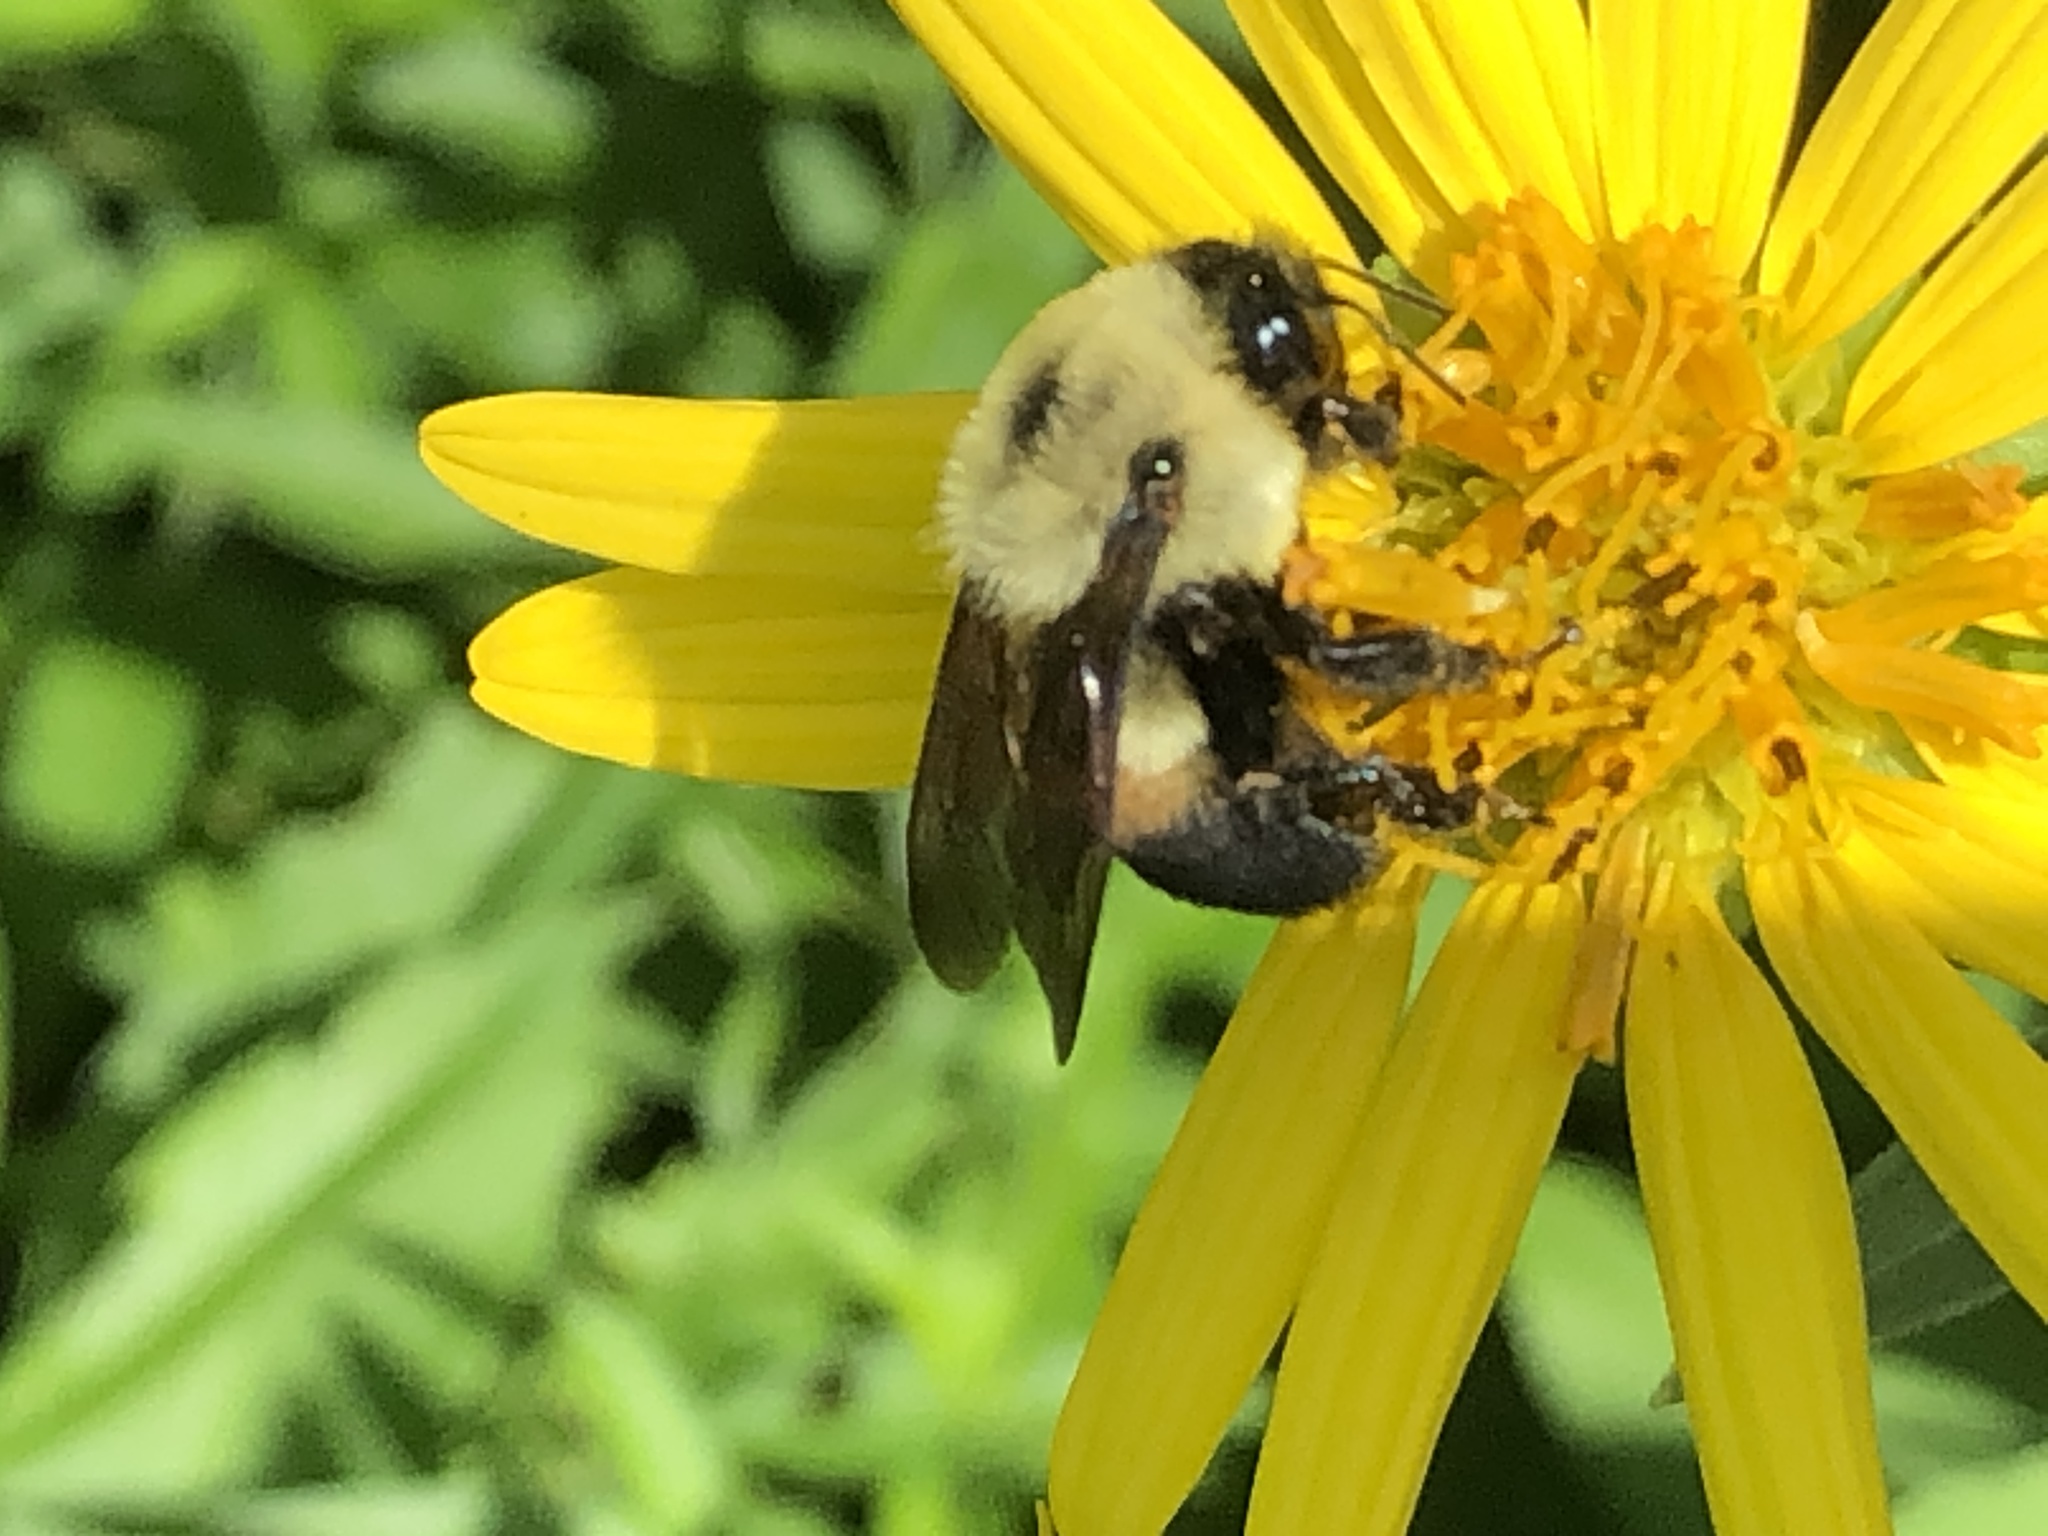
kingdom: Animalia
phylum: Arthropoda
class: Insecta
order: Hymenoptera
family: Apidae
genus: Bombus
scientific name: Bombus griseocollis
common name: Brown-belted bumble bee
